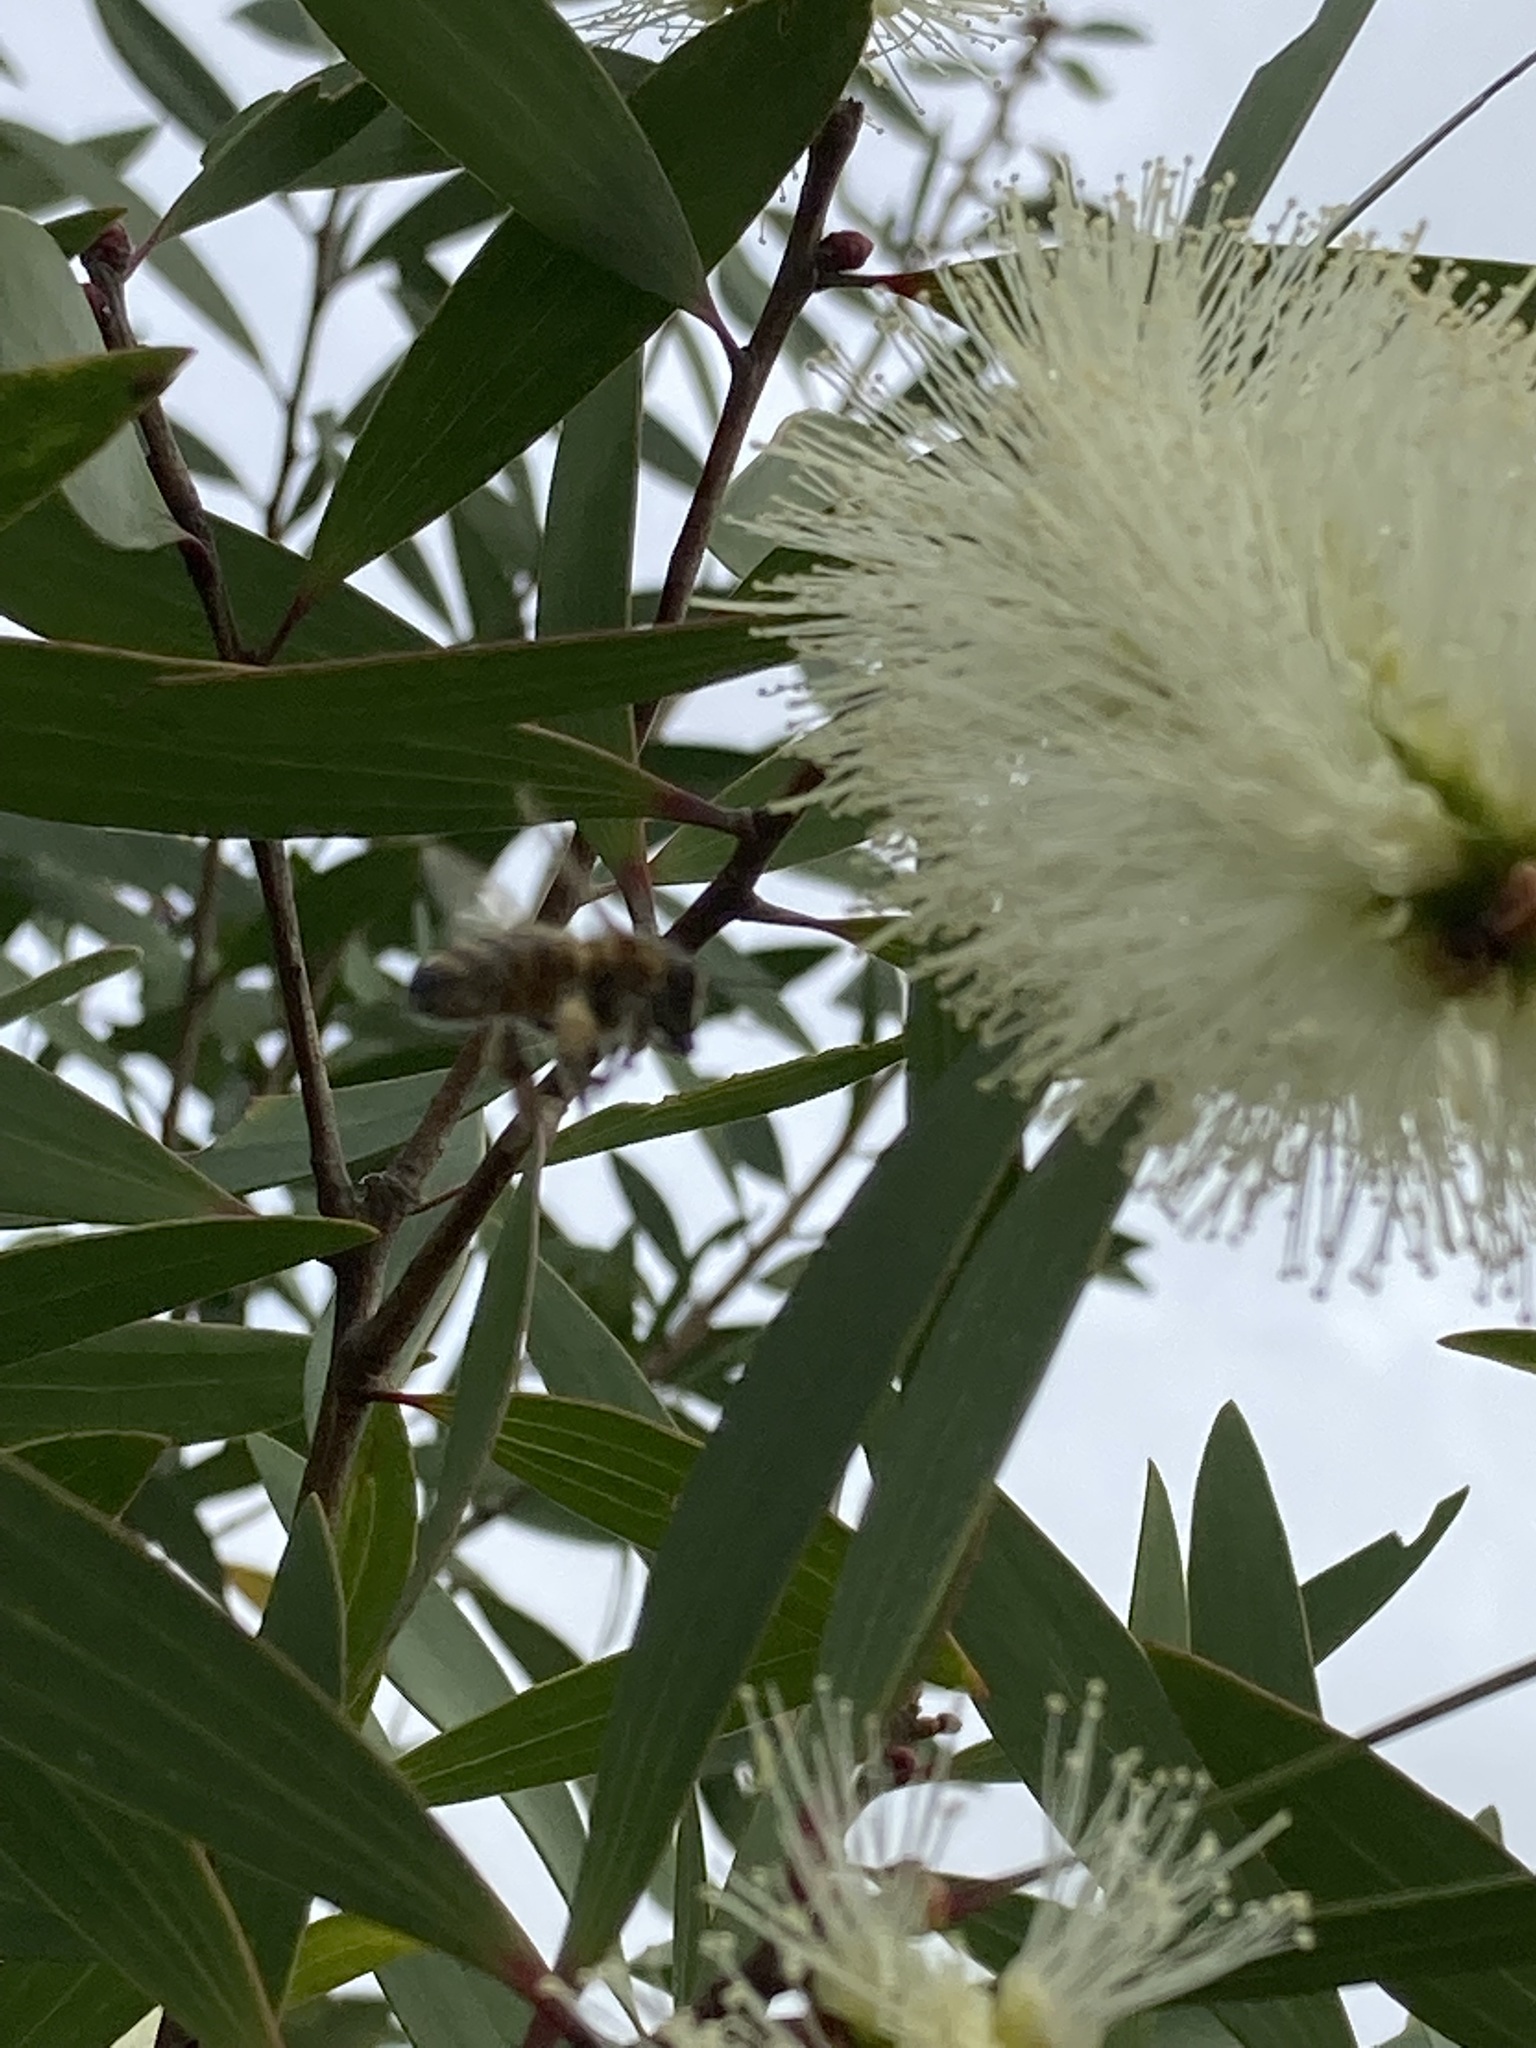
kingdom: Animalia
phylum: Arthropoda
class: Insecta
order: Hymenoptera
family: Apidae
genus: Apis
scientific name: Apis mellifera
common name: Honey bee
